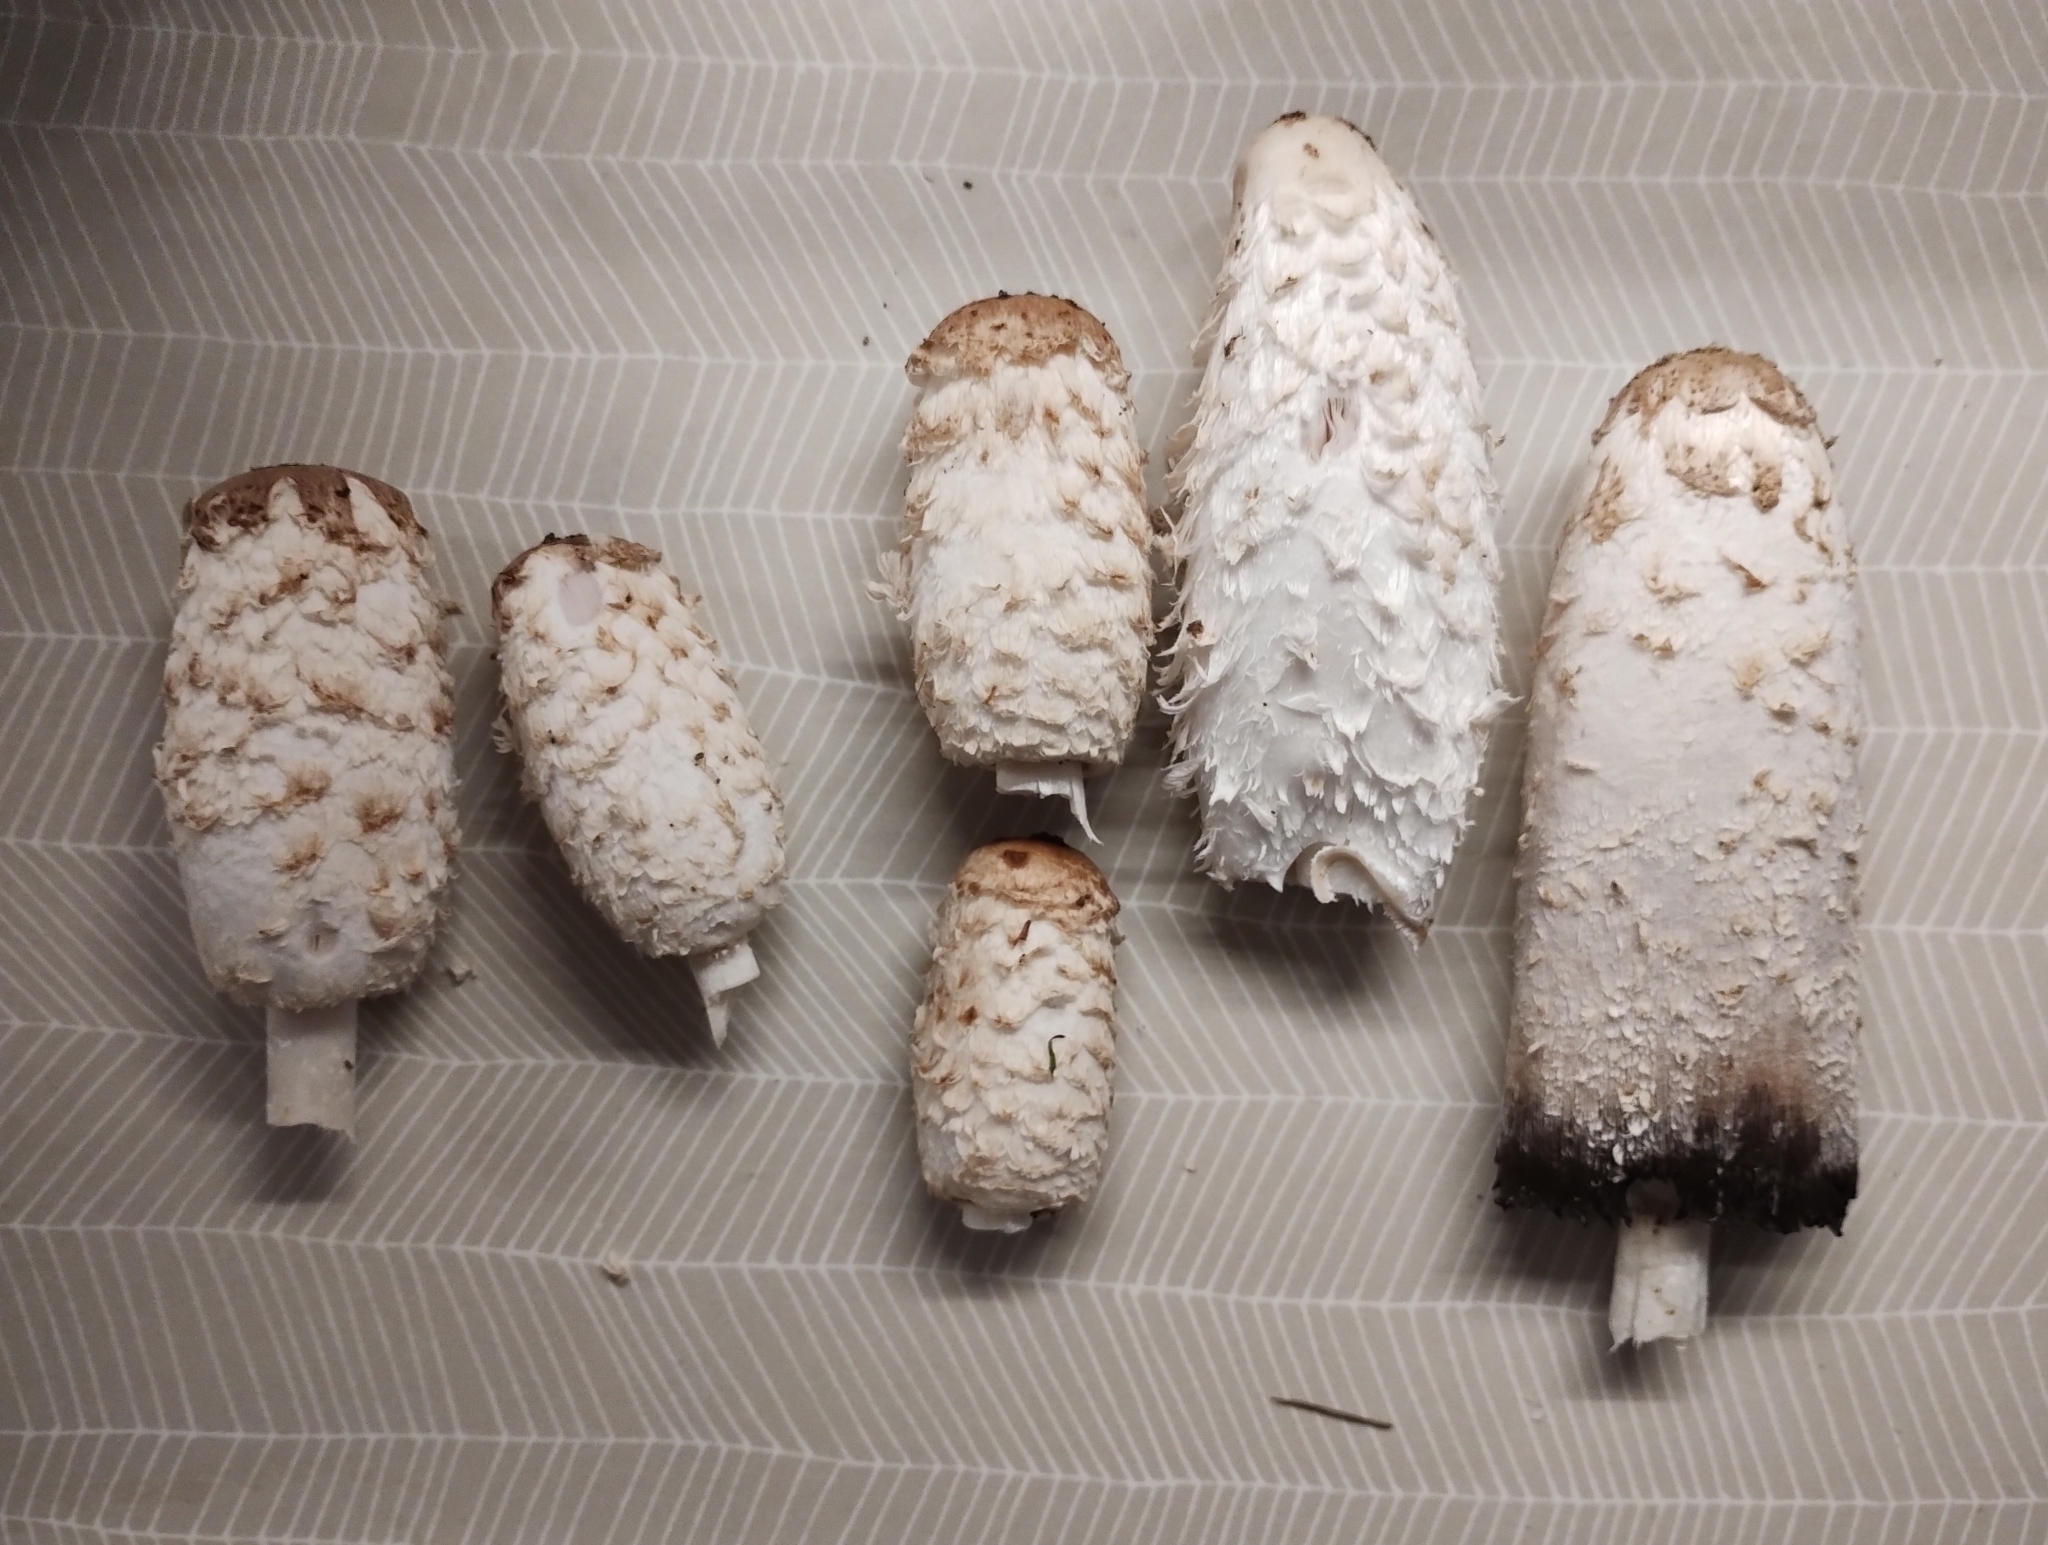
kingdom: Fungi
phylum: Basidiomycota
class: Agaricomycetes
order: Agaricales
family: Agaricaceae
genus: Coprinus
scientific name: Coprinus comatus
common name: Lawyer's wig
